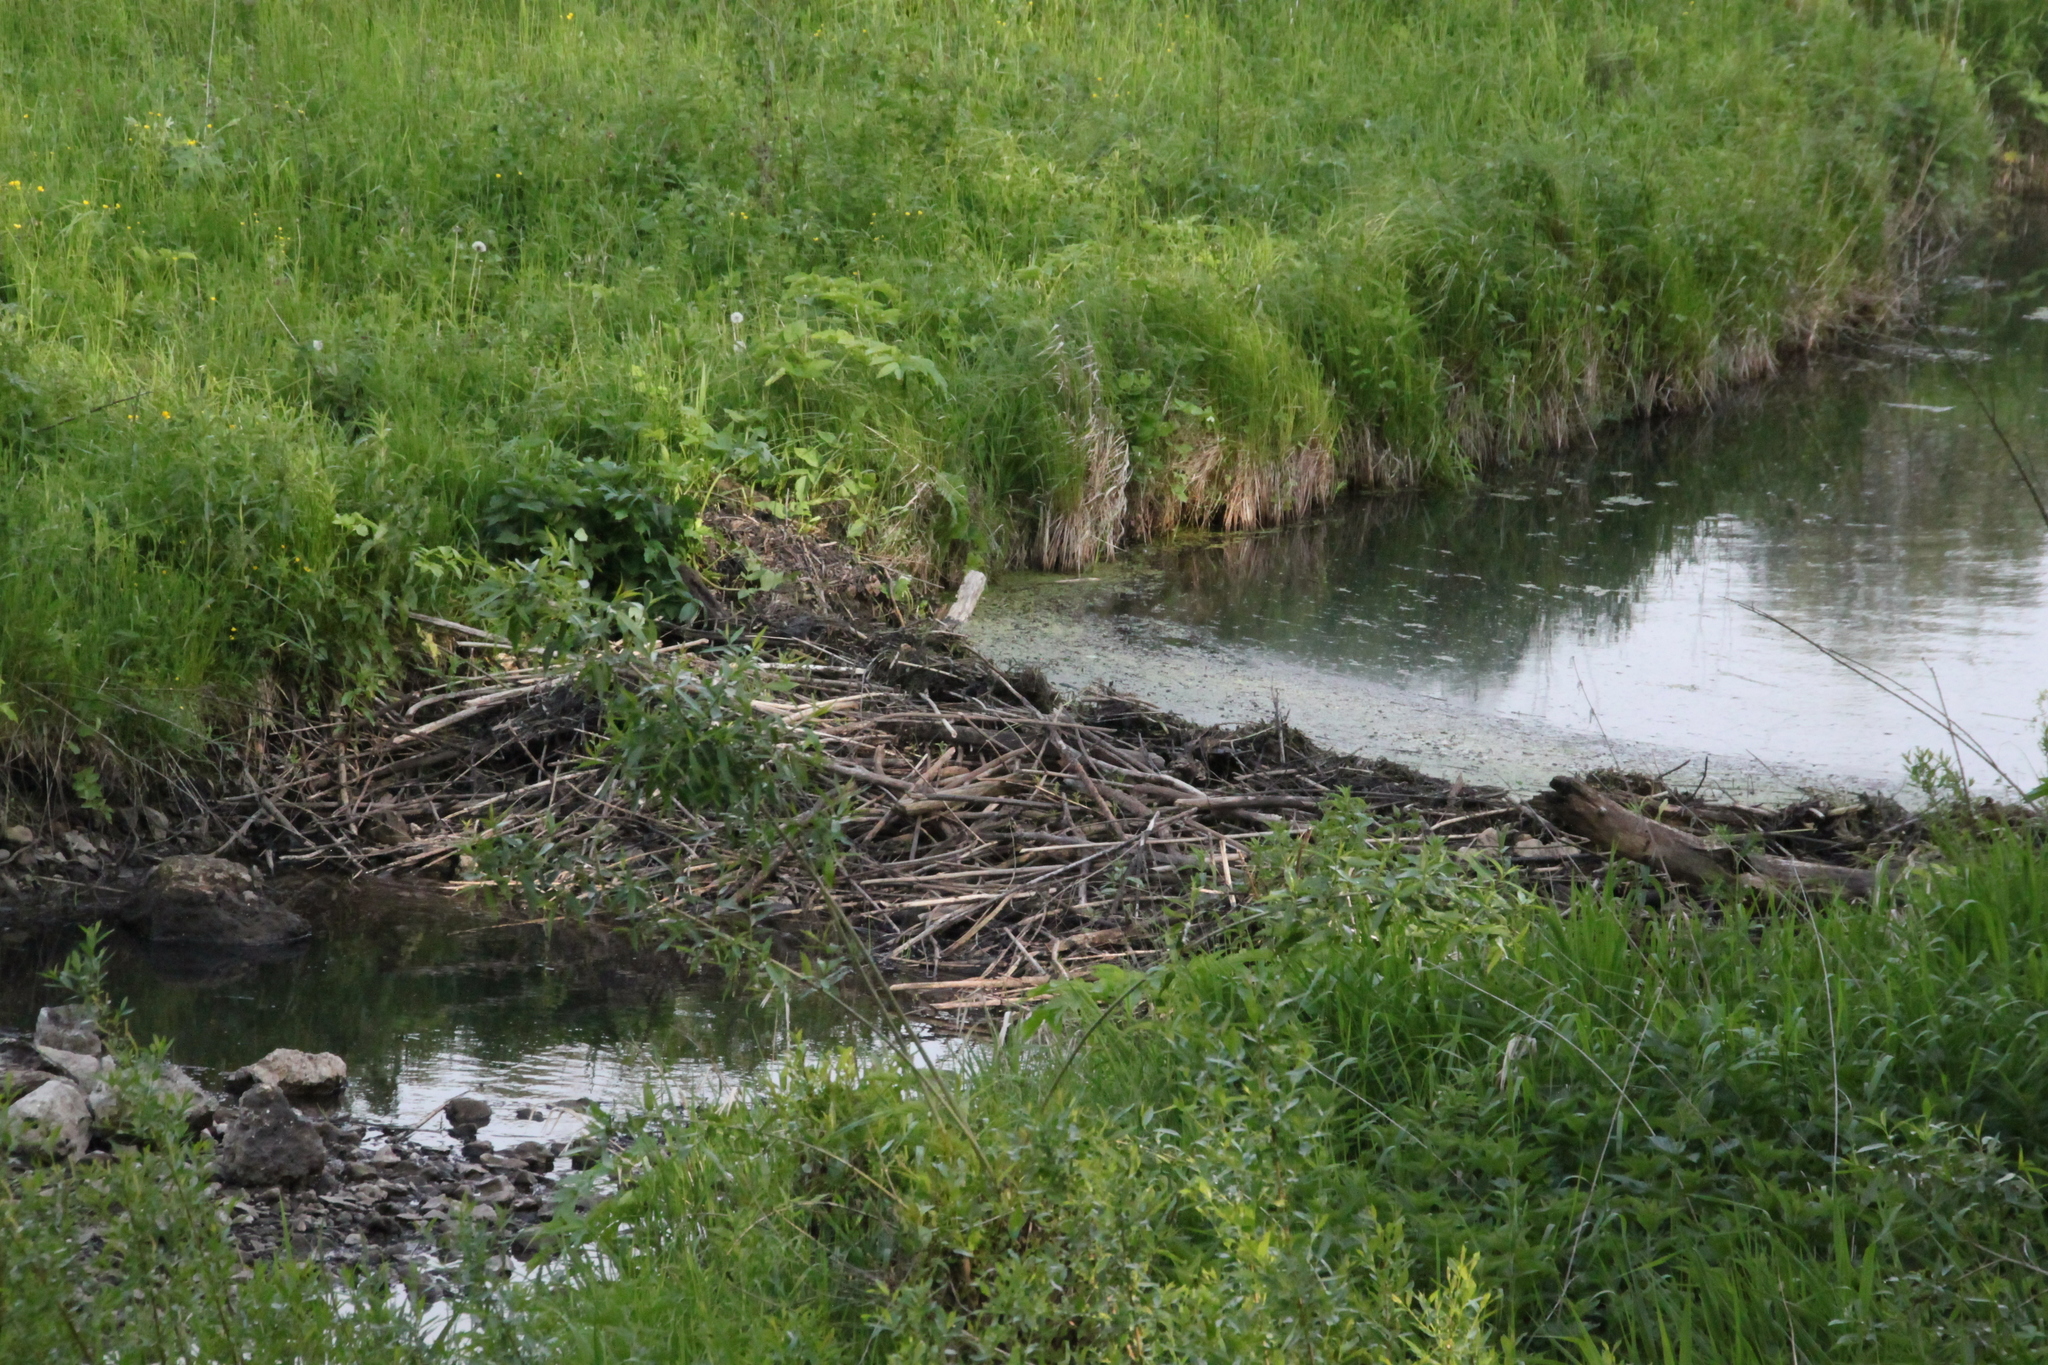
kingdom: Animalia
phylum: Chordata
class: Mammalia
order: Rodentia
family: Castoridae
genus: Castor
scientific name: Castor fiber
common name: Eurasian beaver
